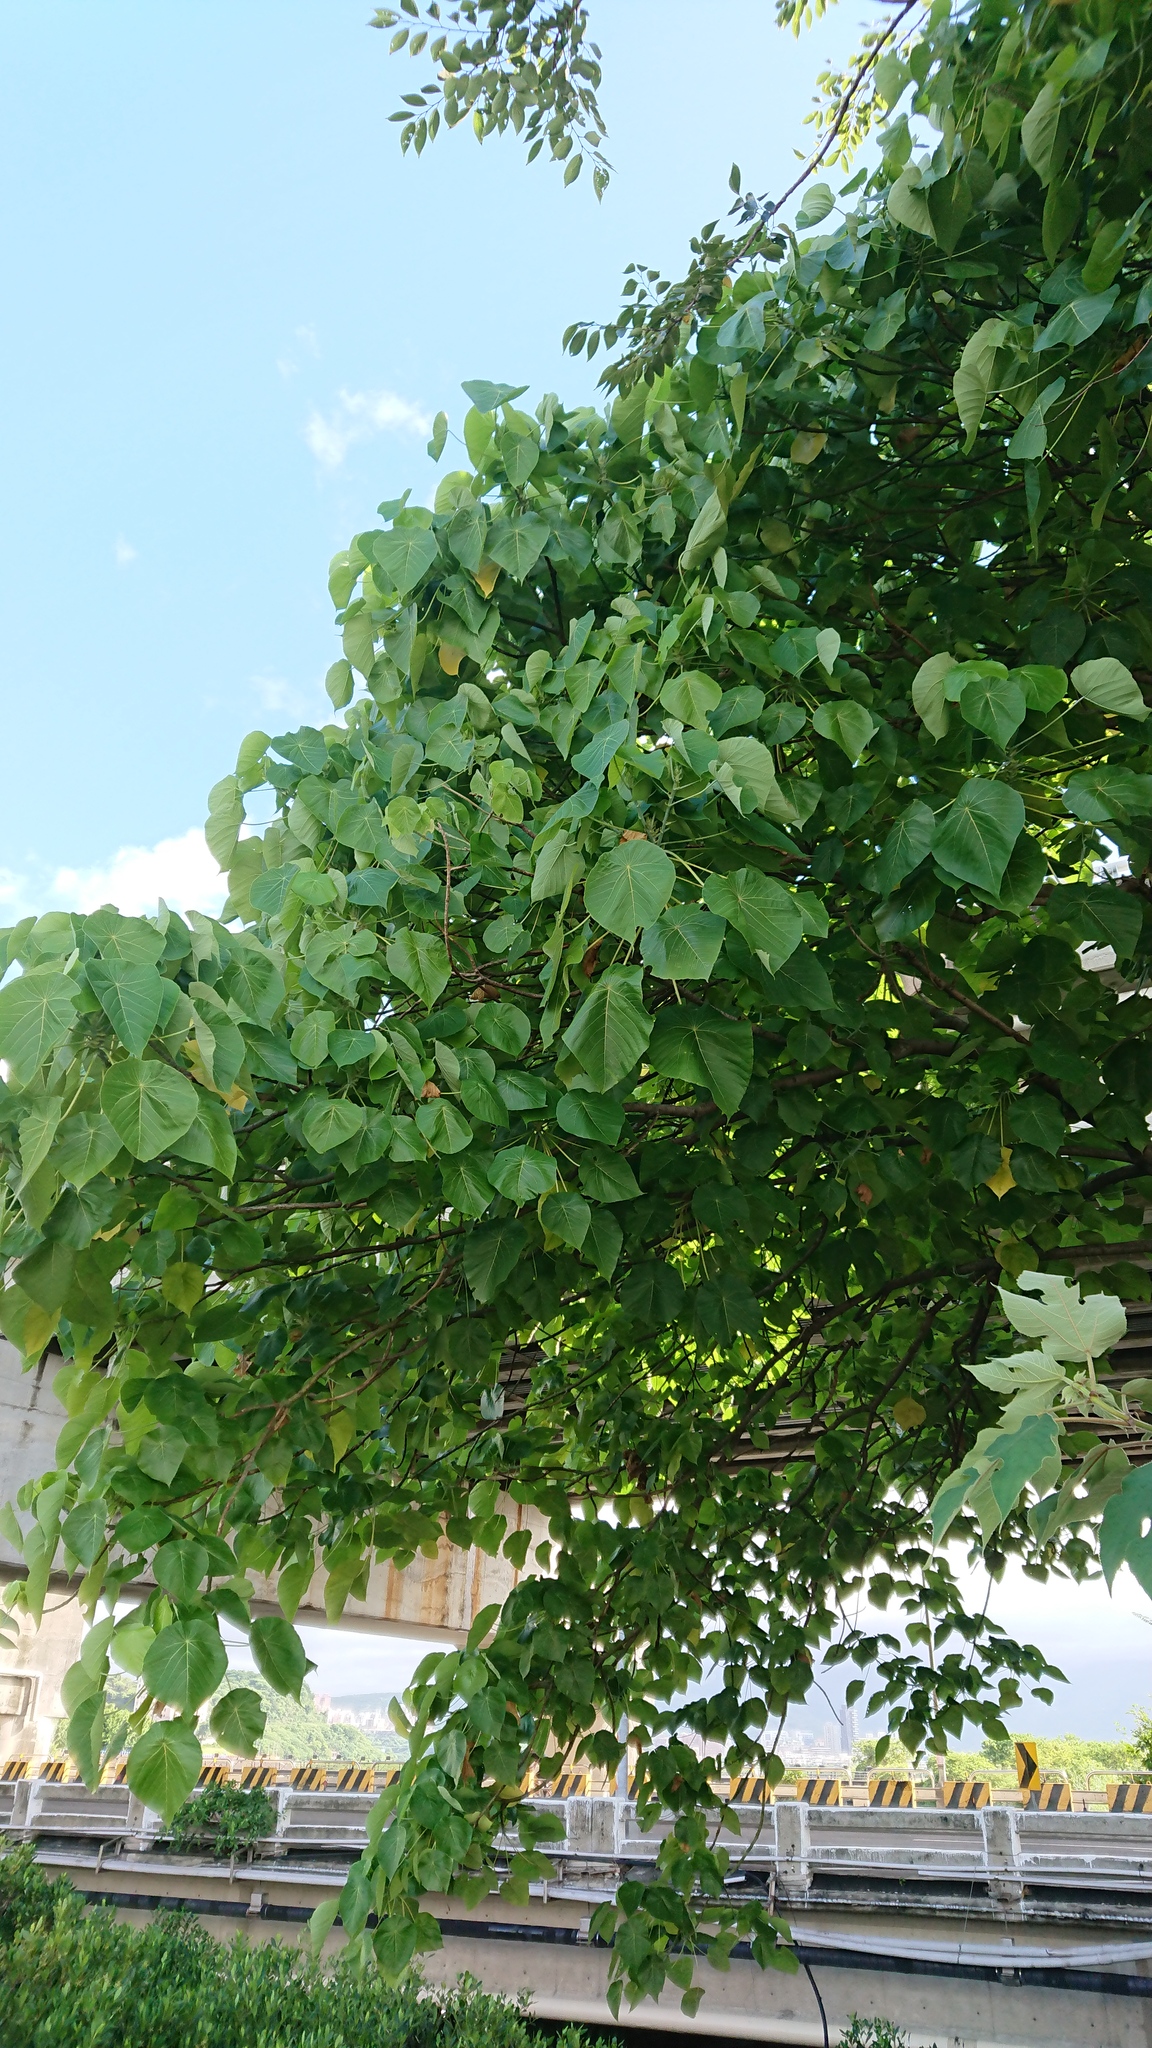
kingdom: Plantae
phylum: Tracheophyta
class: Magnoliopsida
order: Malpighiales
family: Euphorbiaceae
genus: Macaranga
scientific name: Macaranga tanarius
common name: Parasol leaf tree
